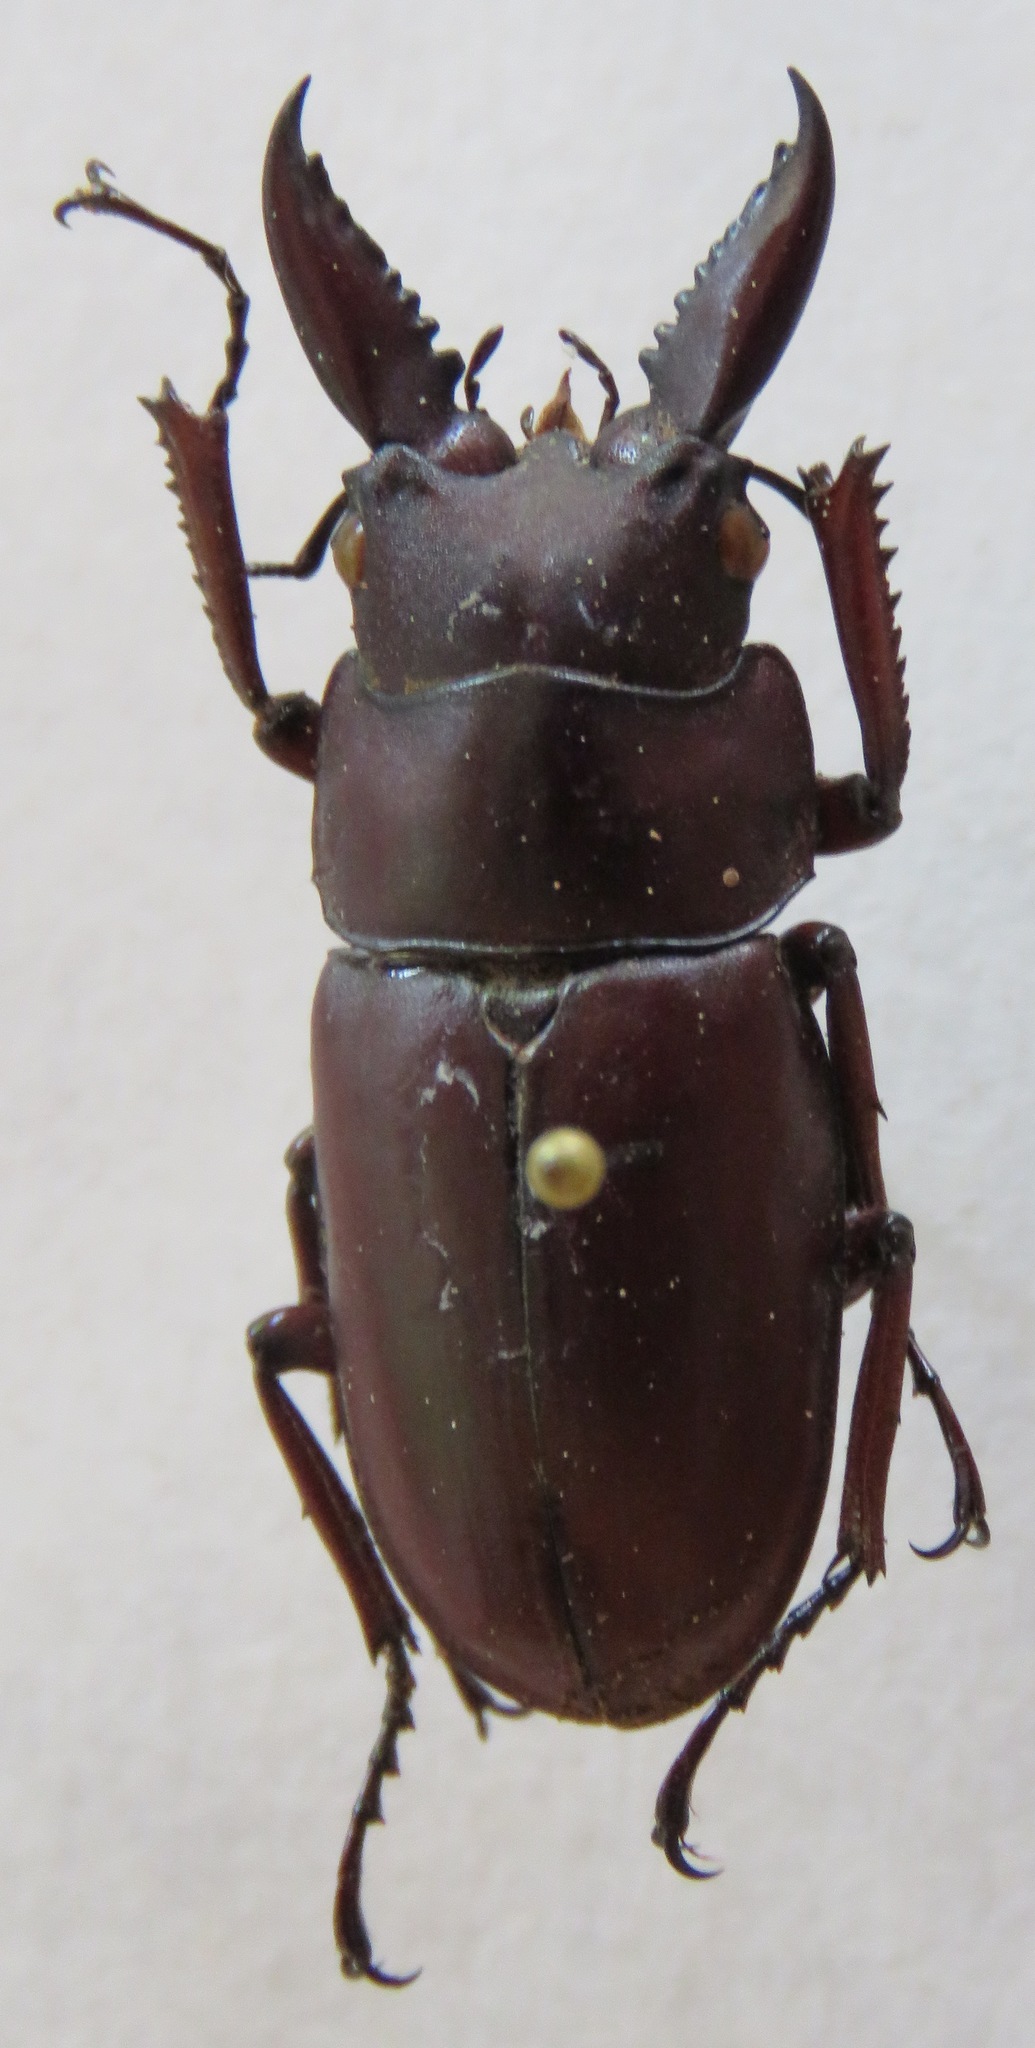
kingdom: Animalia
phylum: Arthropoda
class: Insecta
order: Coleoptera
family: Lucanidae
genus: Prosopocoilus
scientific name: Prosopocoilus astacoides
